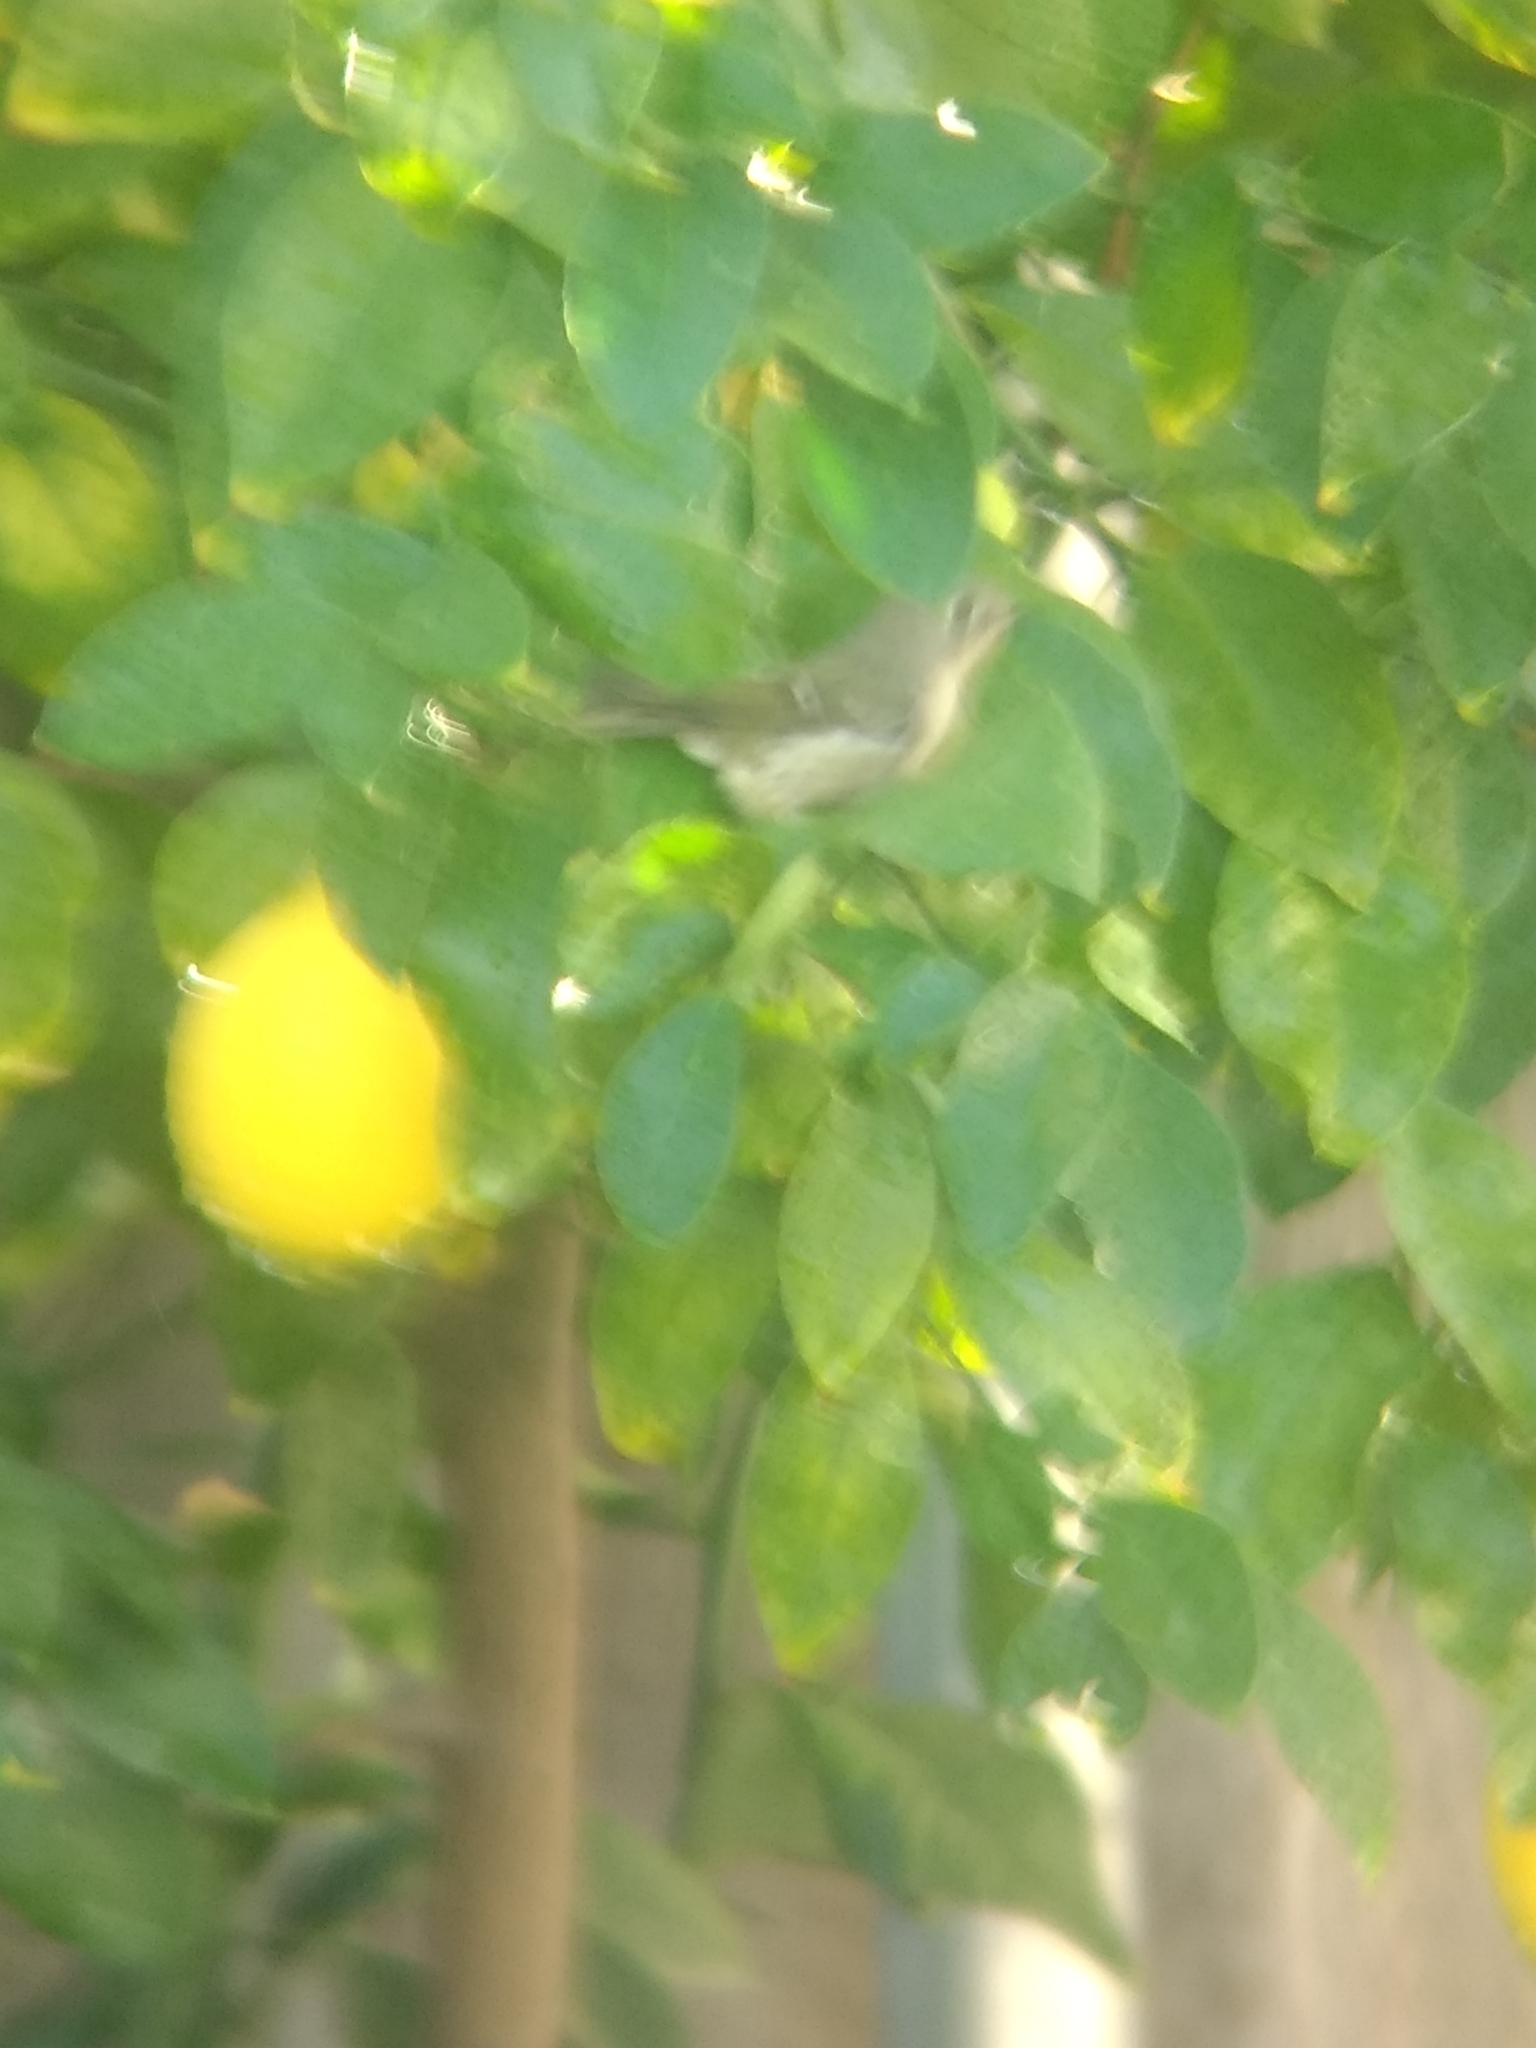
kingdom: Animalia
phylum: Chordata
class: Aves
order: Passeriformes
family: Regulidae
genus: Regulus
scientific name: Regulus calendula
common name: Ruby-crowned kinglet
